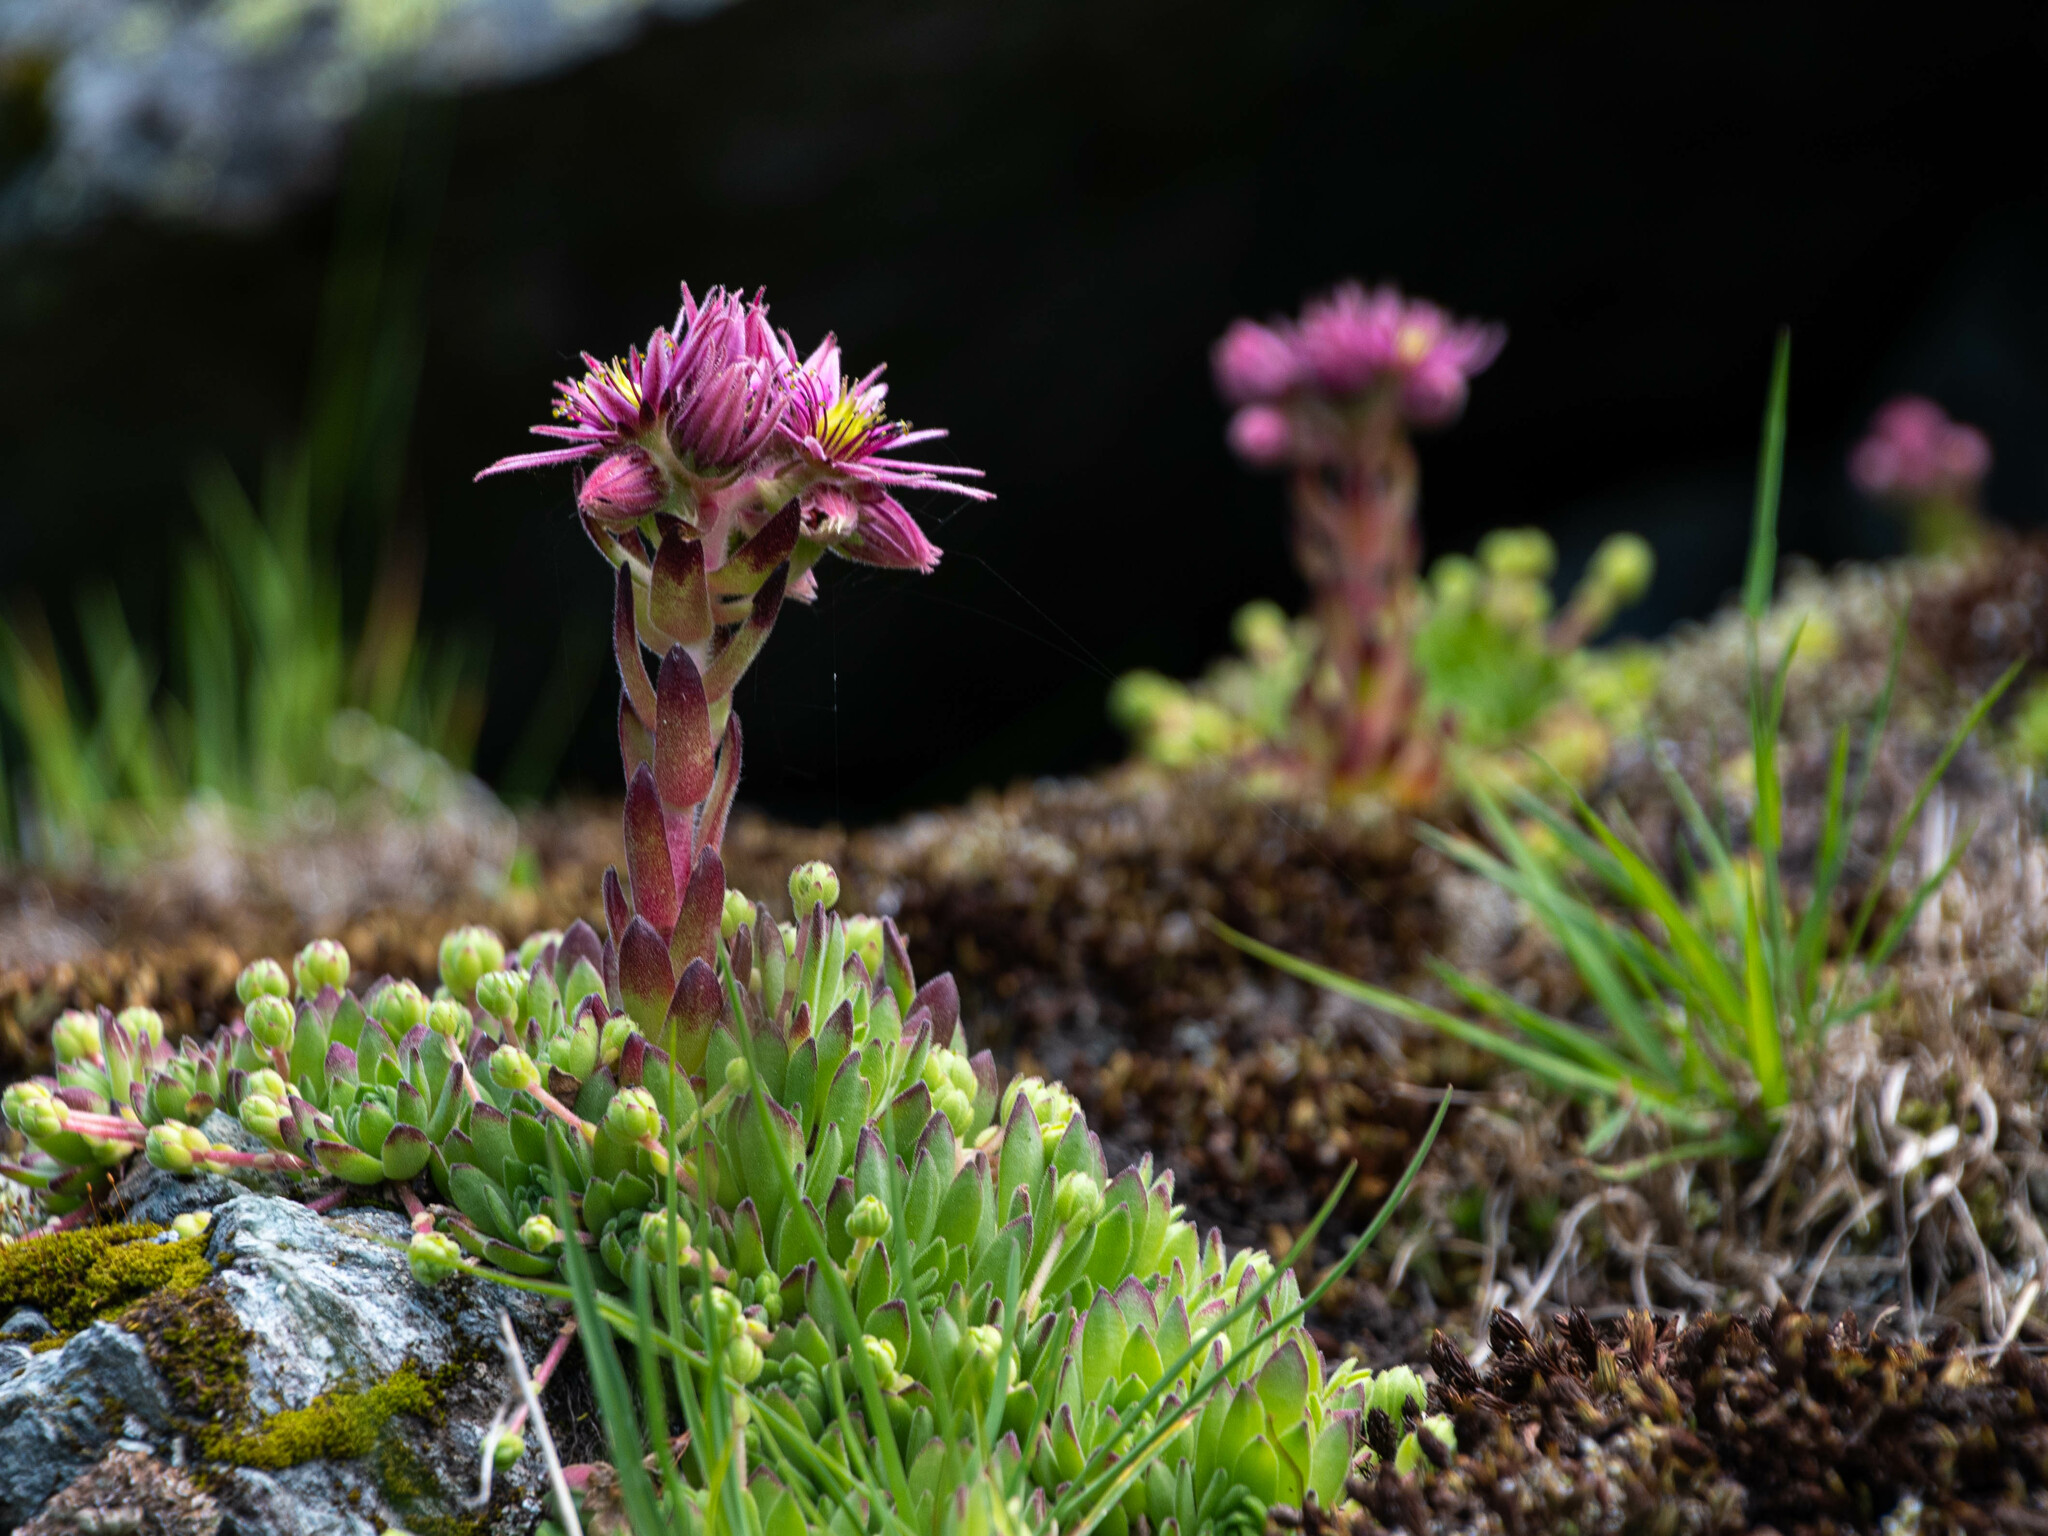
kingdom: Plantae
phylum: Tracheophyta
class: Magnoliopsida
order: Saxifragales
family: Crassulaceae
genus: Sempervivum
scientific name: Sempervivum montanum
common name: Mountain house-leek
